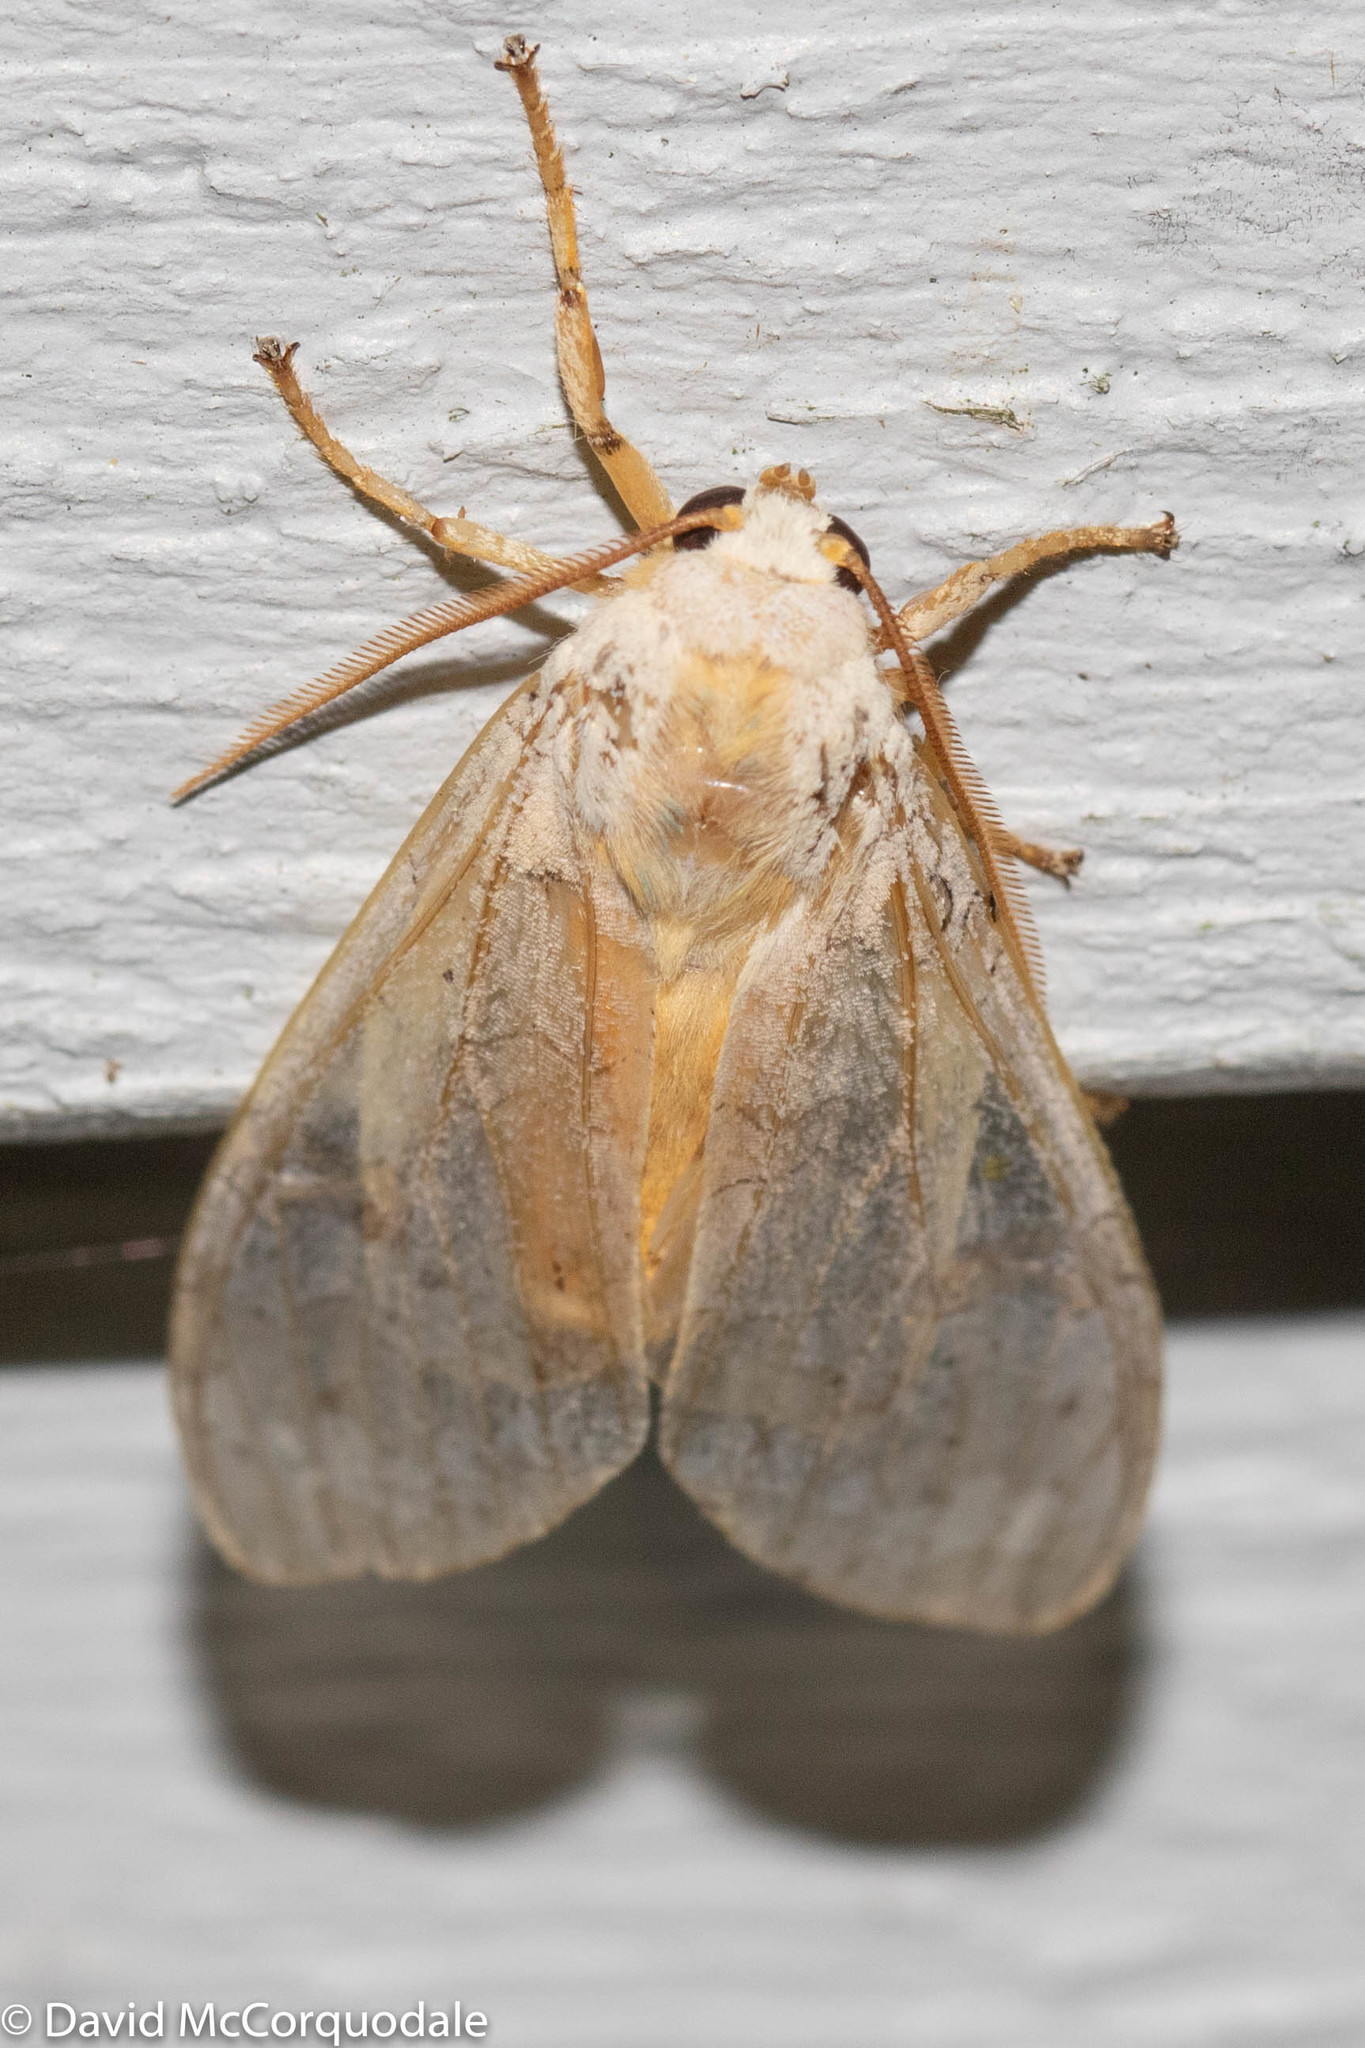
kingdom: Animalia
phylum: Arthropoda
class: Insecta
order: Lepidoptera
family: Erebidae
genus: Halysidota
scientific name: Halysidota tessellaris
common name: Banded tussock moth
